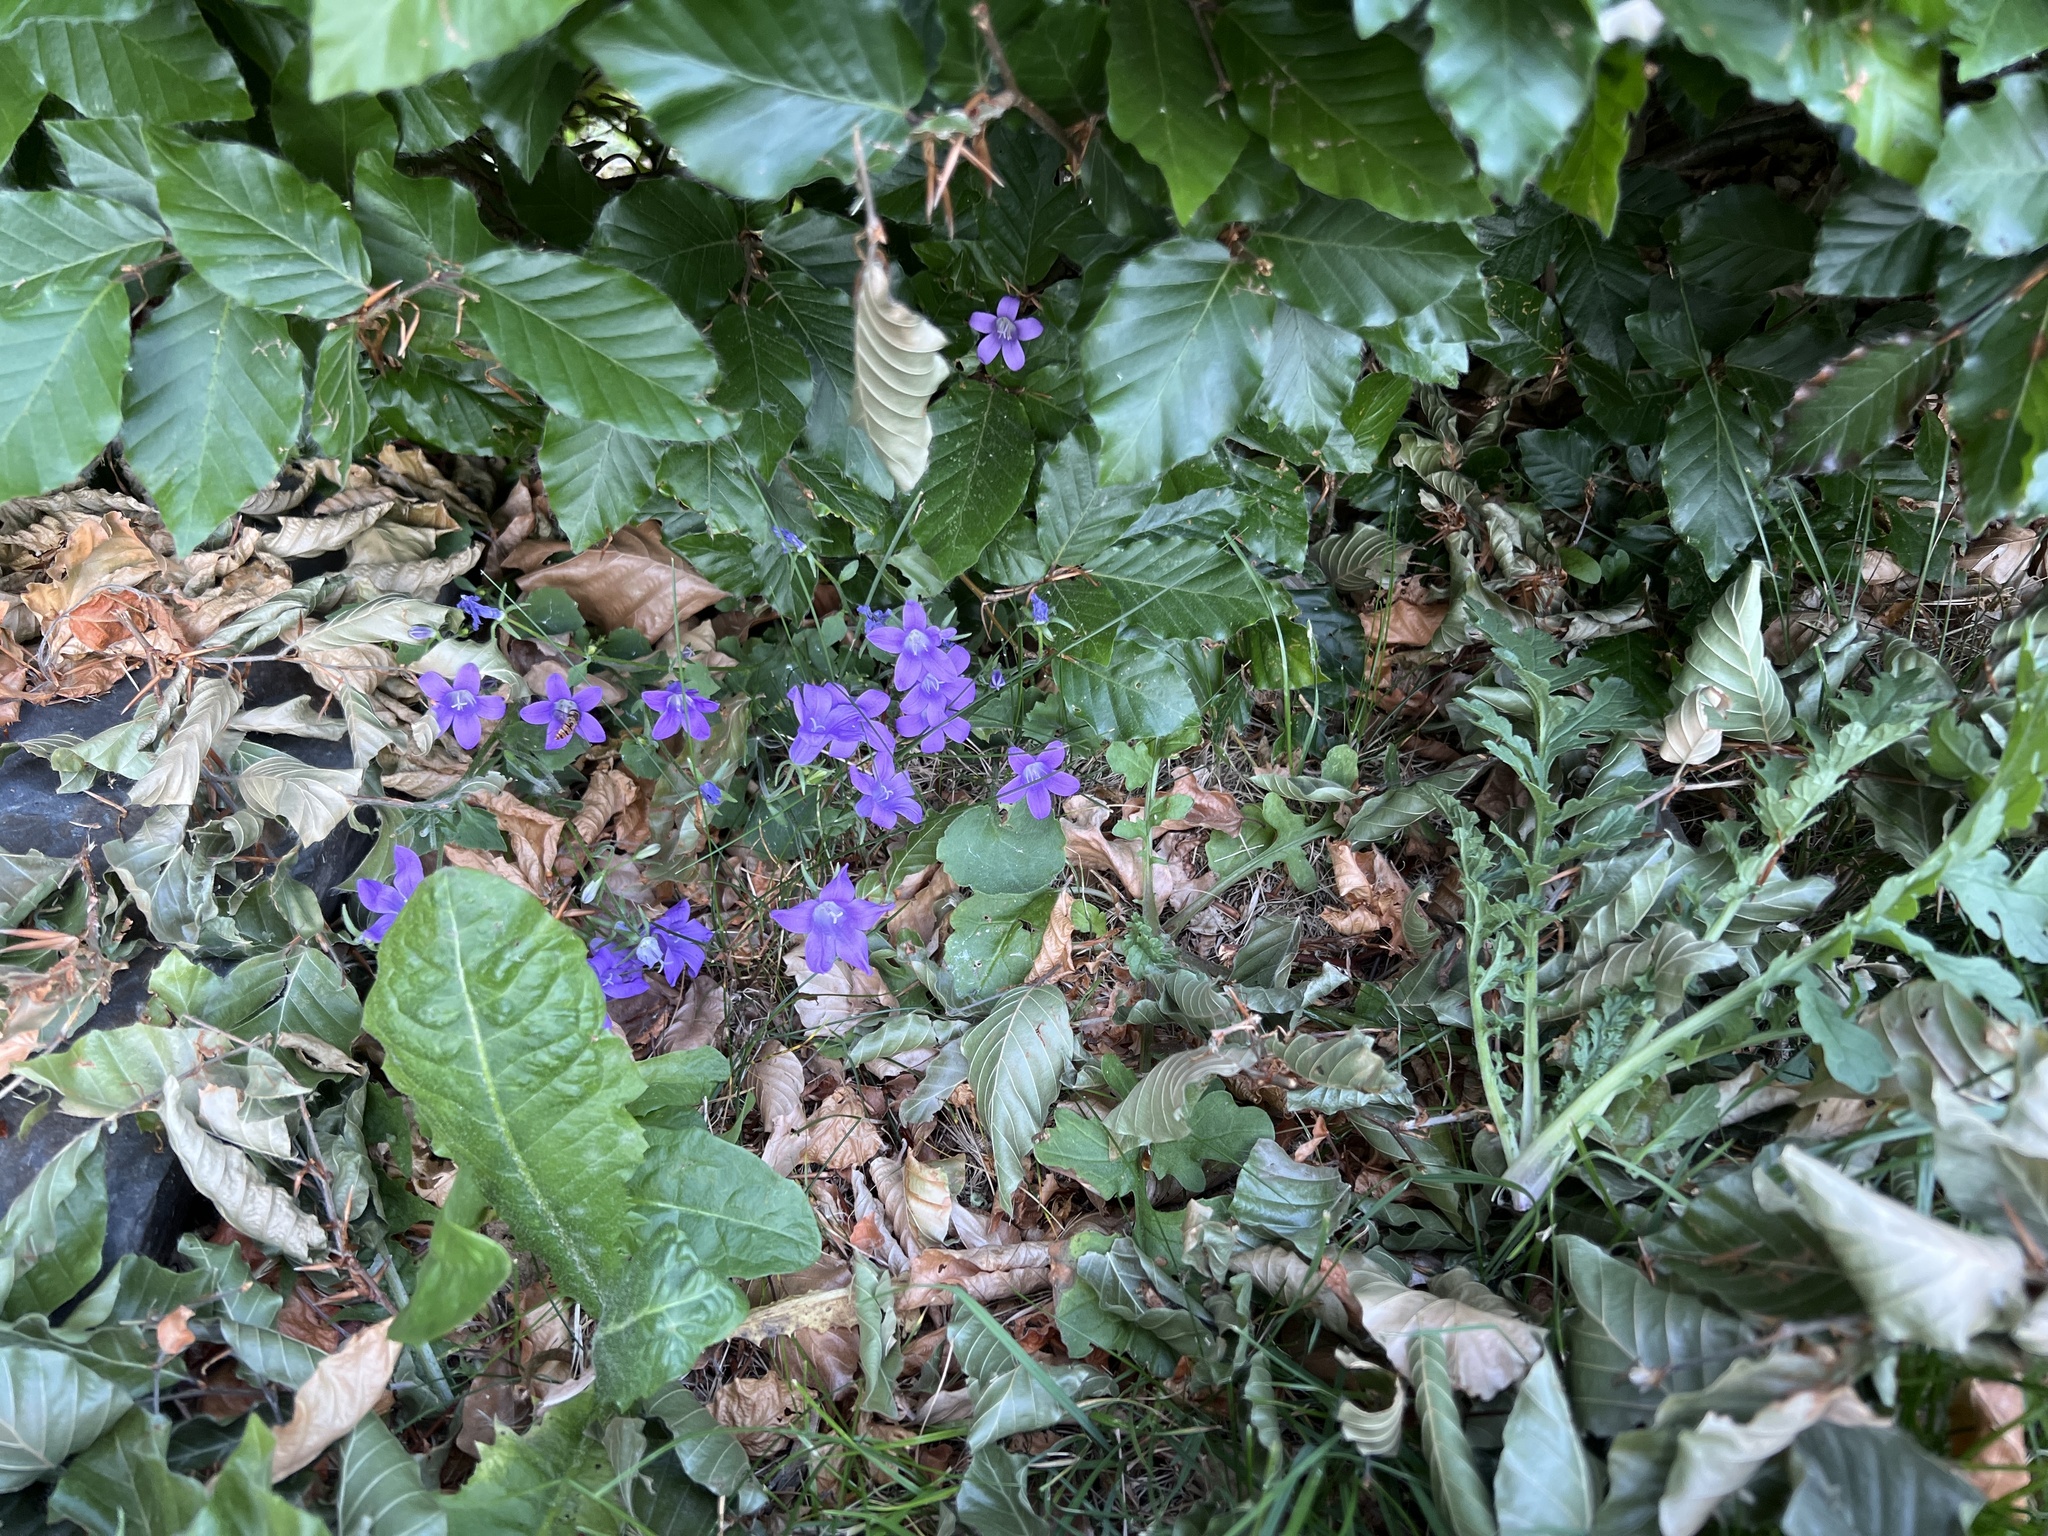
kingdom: Plantae
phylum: Tracheophyta
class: Magnoliopsida
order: Asterales
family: Campanulaceae
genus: Campanula
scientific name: Campanula rotundifolia
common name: Harebell
